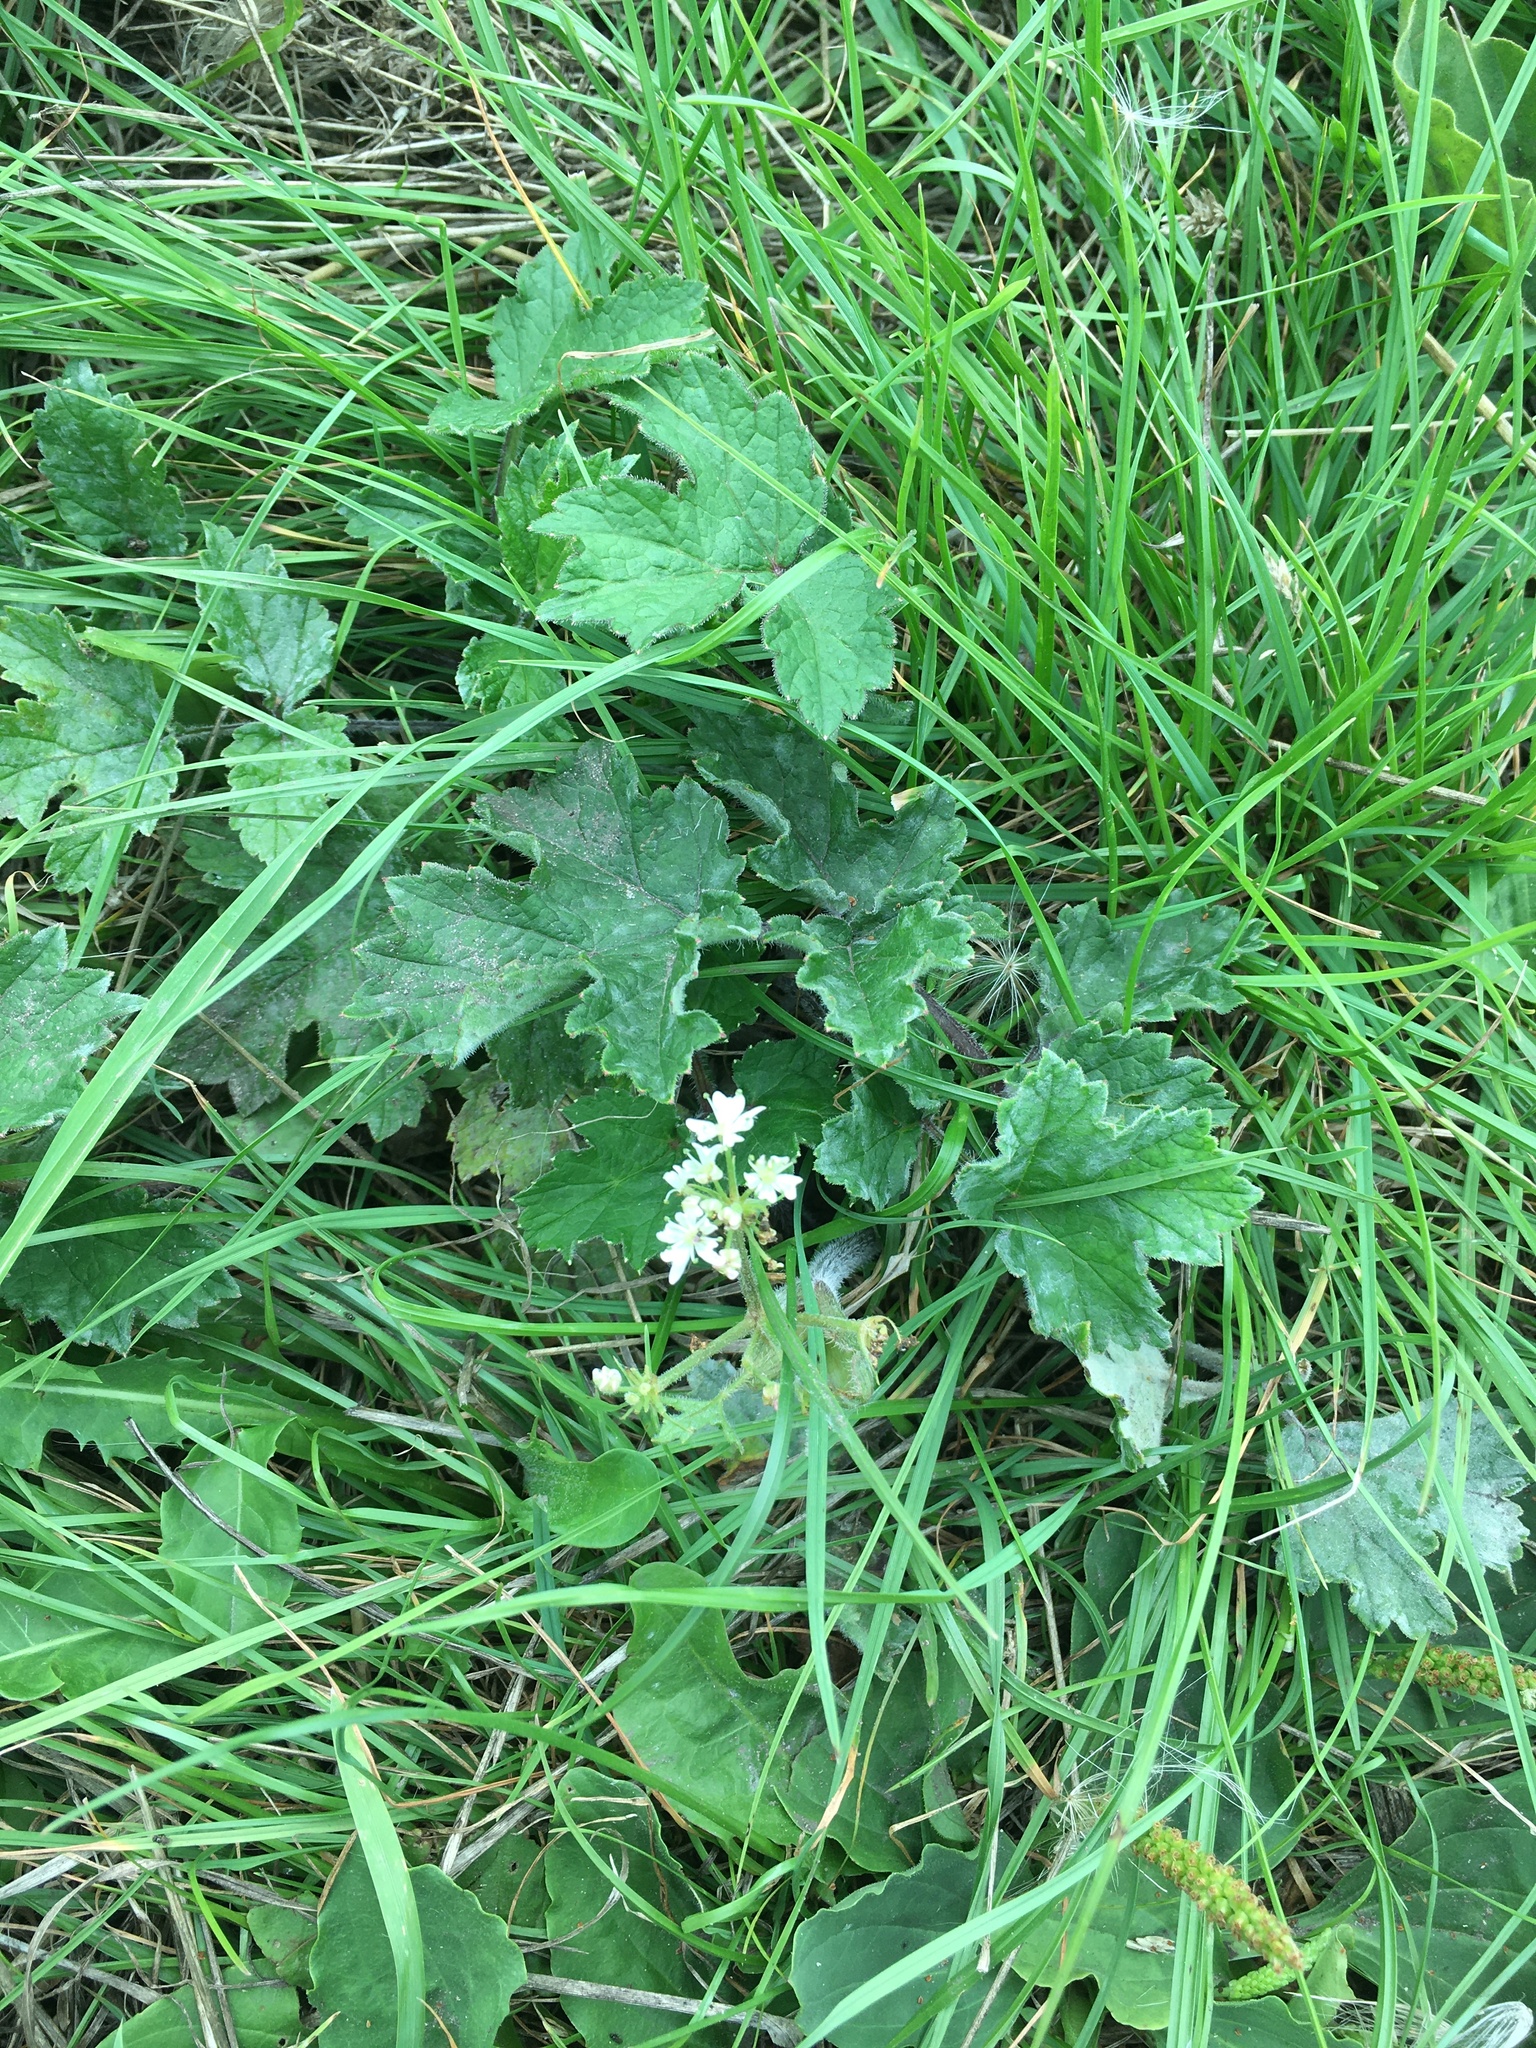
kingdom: Plantae
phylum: Tracheophyta
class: Magnoliopsida
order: Apiales
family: Apiaceae
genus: Heracleum
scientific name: Heracleum sphondylium
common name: Hogweed
